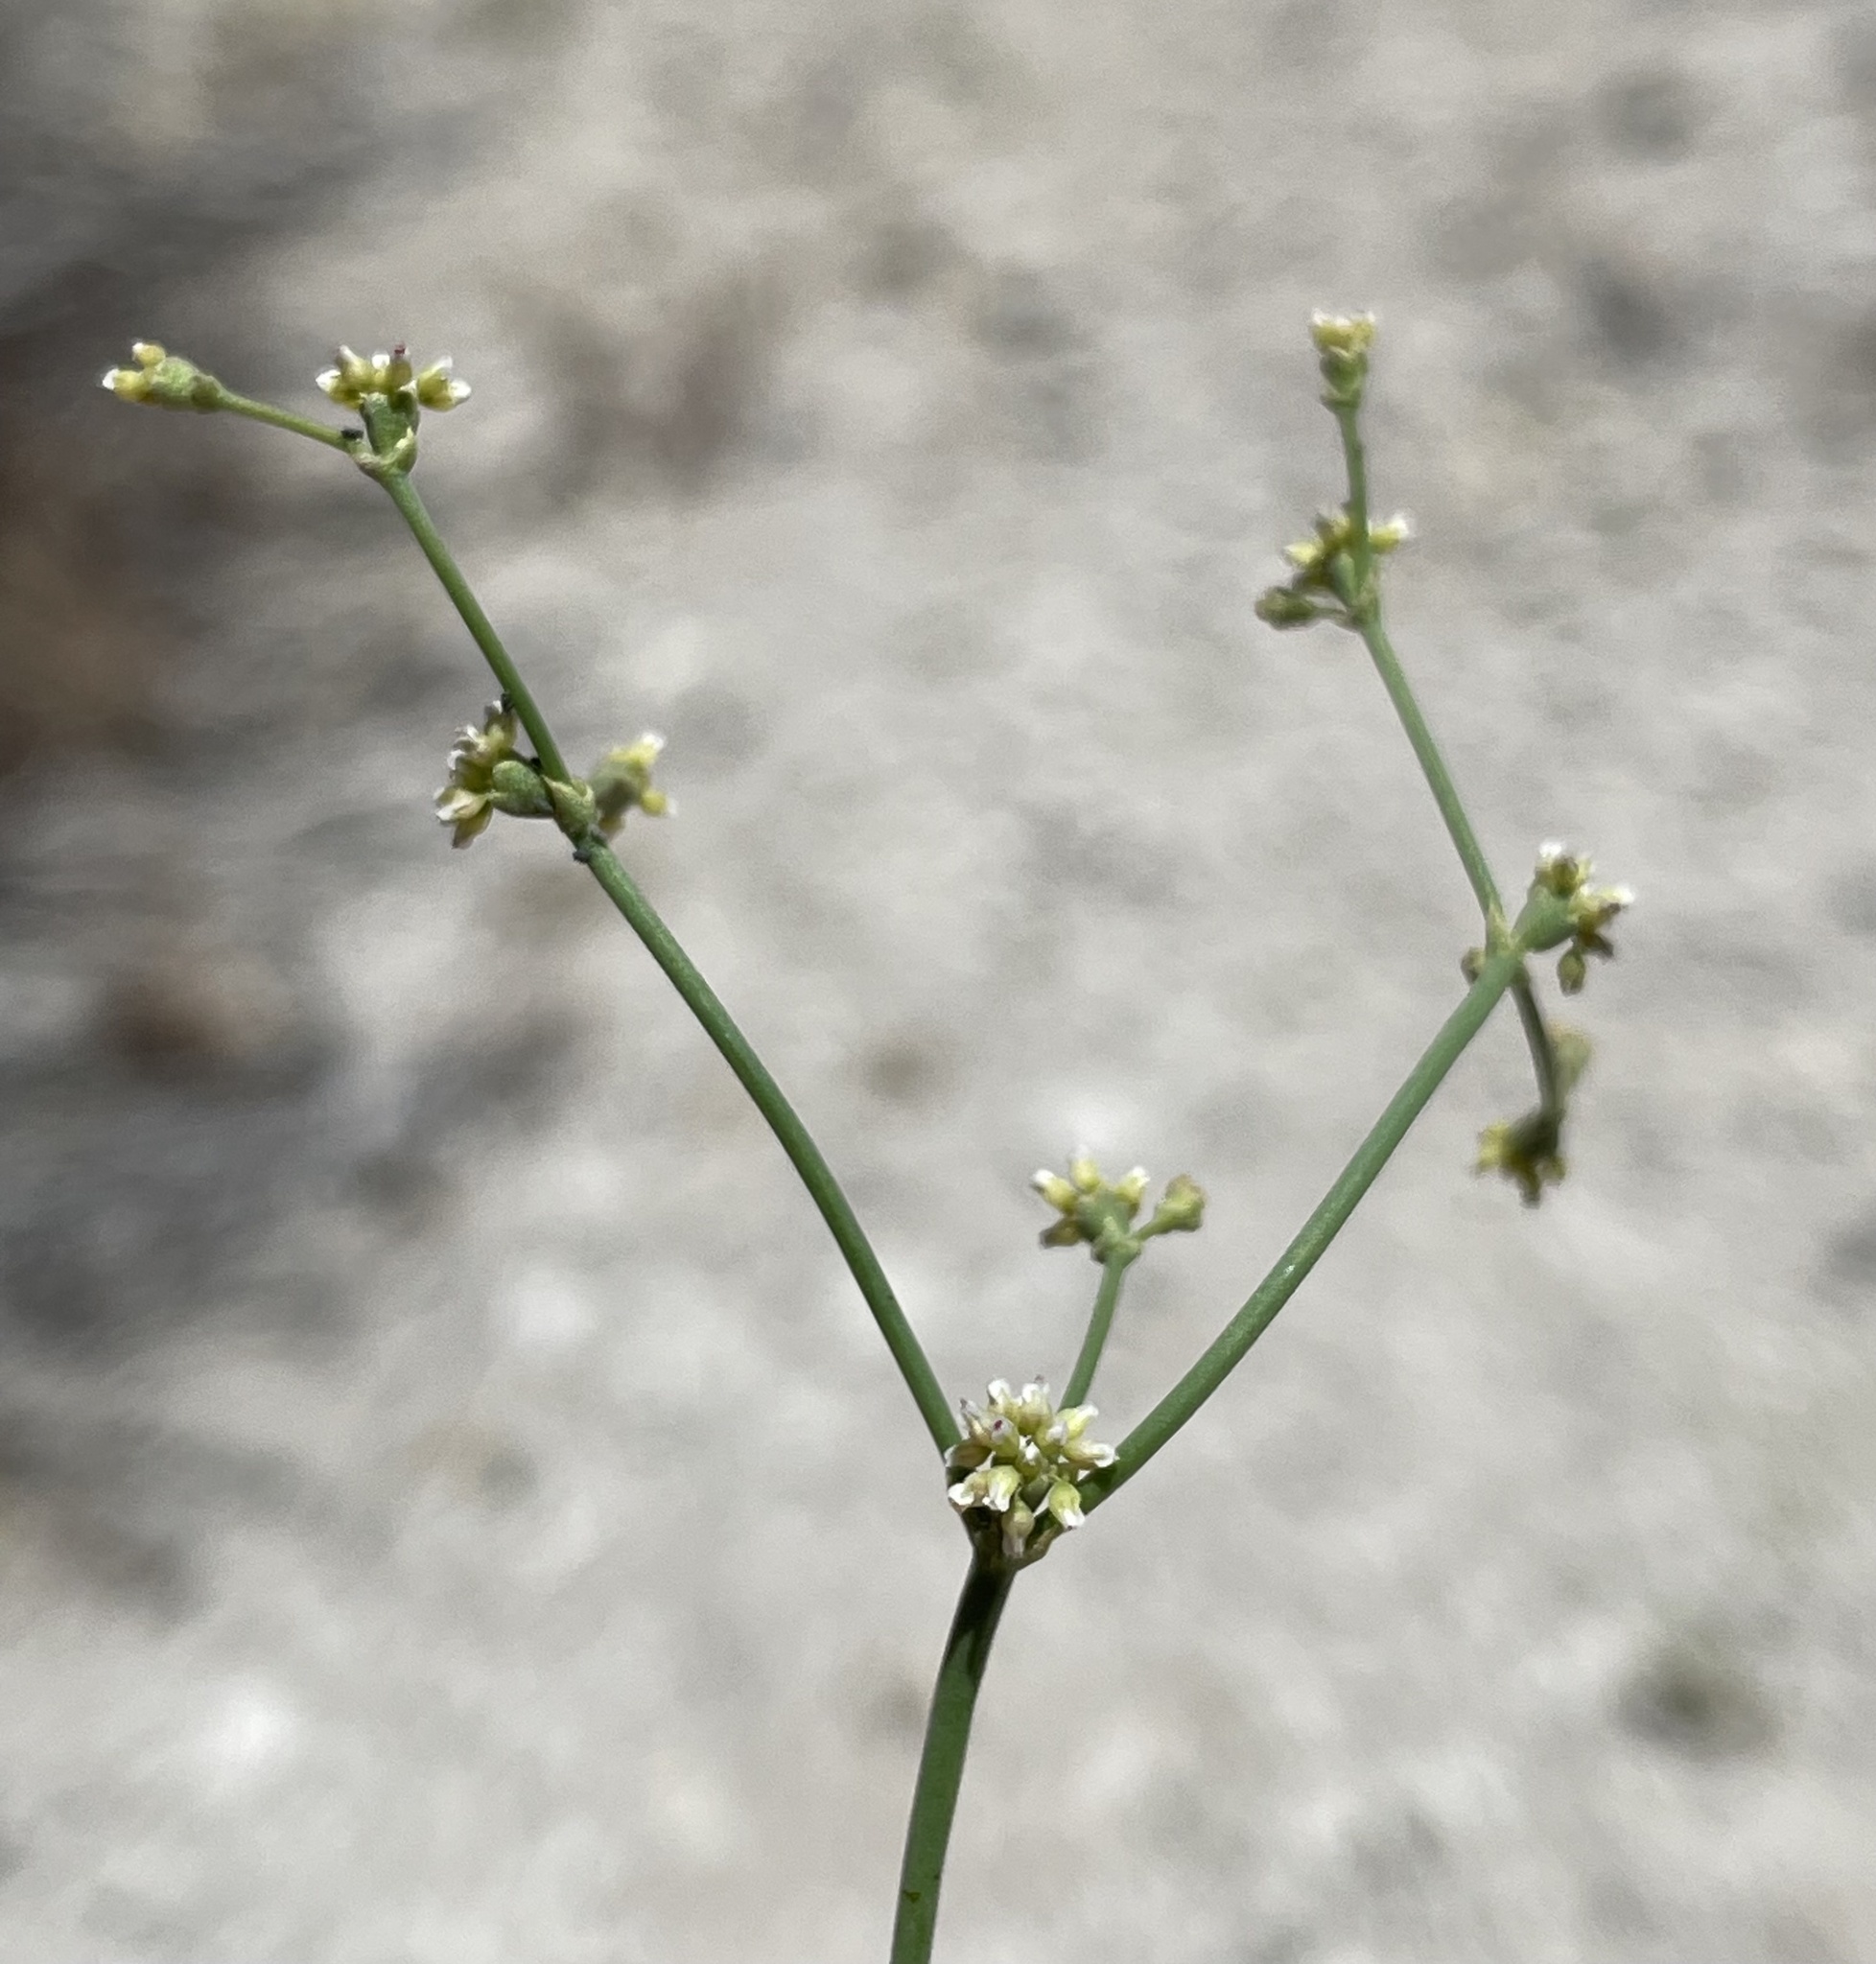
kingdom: Plantae
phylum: Tracheophyta
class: Magnoliopsida
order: Caryophyllales
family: Polygonaceae
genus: Eriogonum
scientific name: Eriogonum ampullaceum
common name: Mono wild buckwheat
